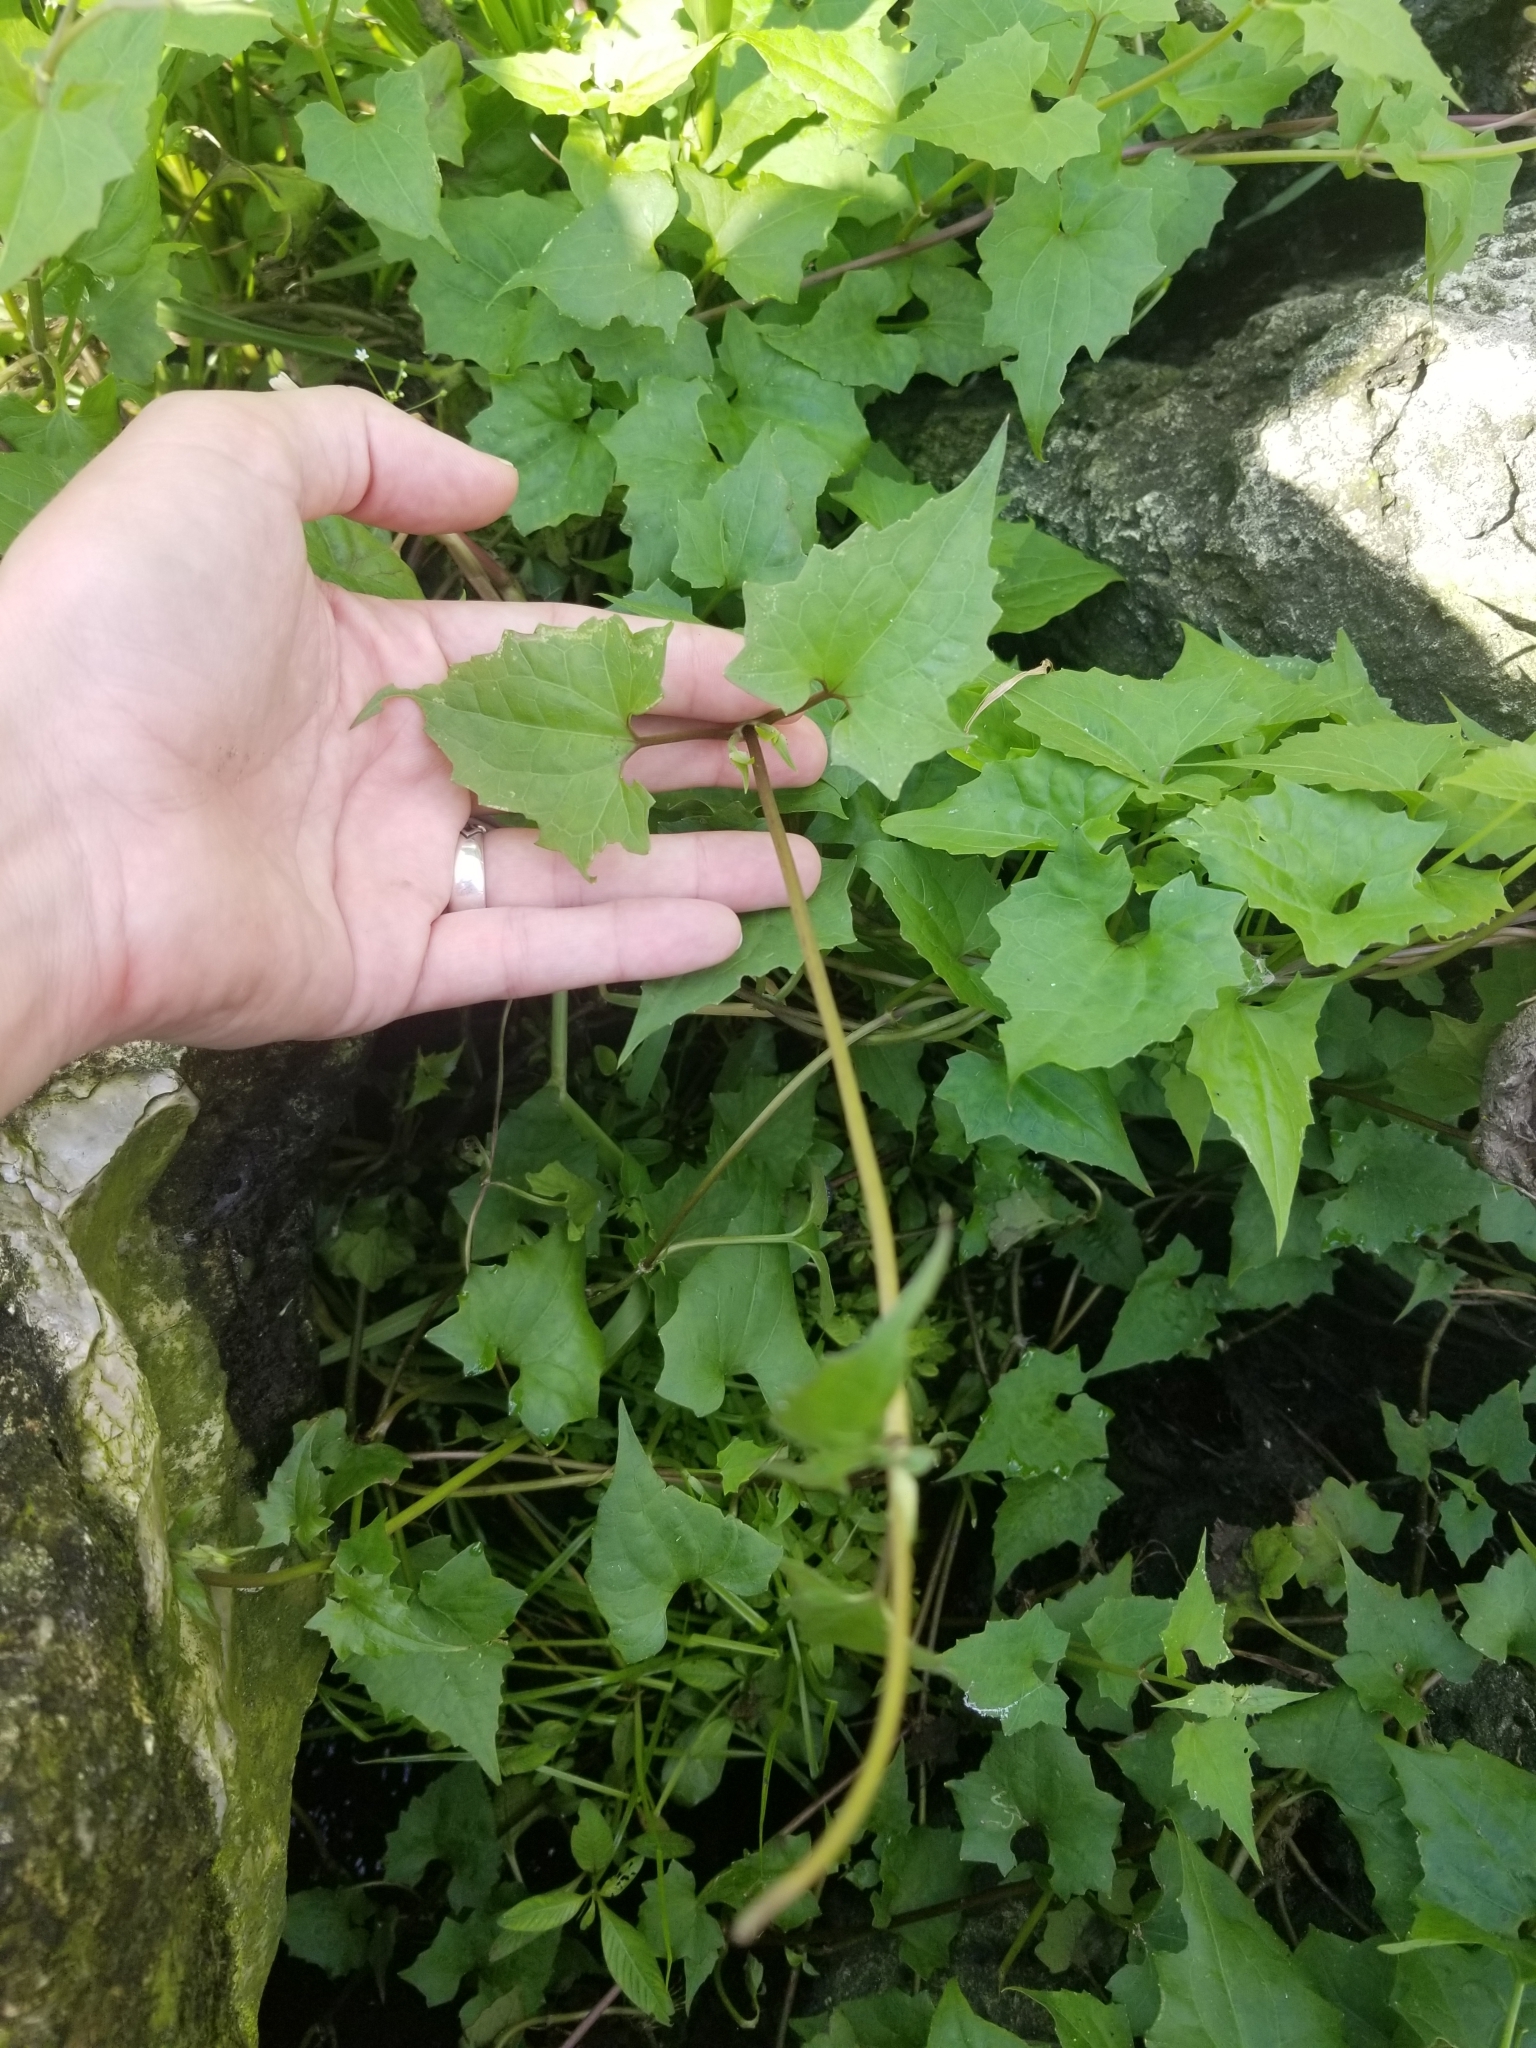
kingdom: Plantae
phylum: Tracheophyta
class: Magnoliopsida
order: Asterales
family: Asteraceae
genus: Mikania
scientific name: Mikania scandens
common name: Climbing hempvine
